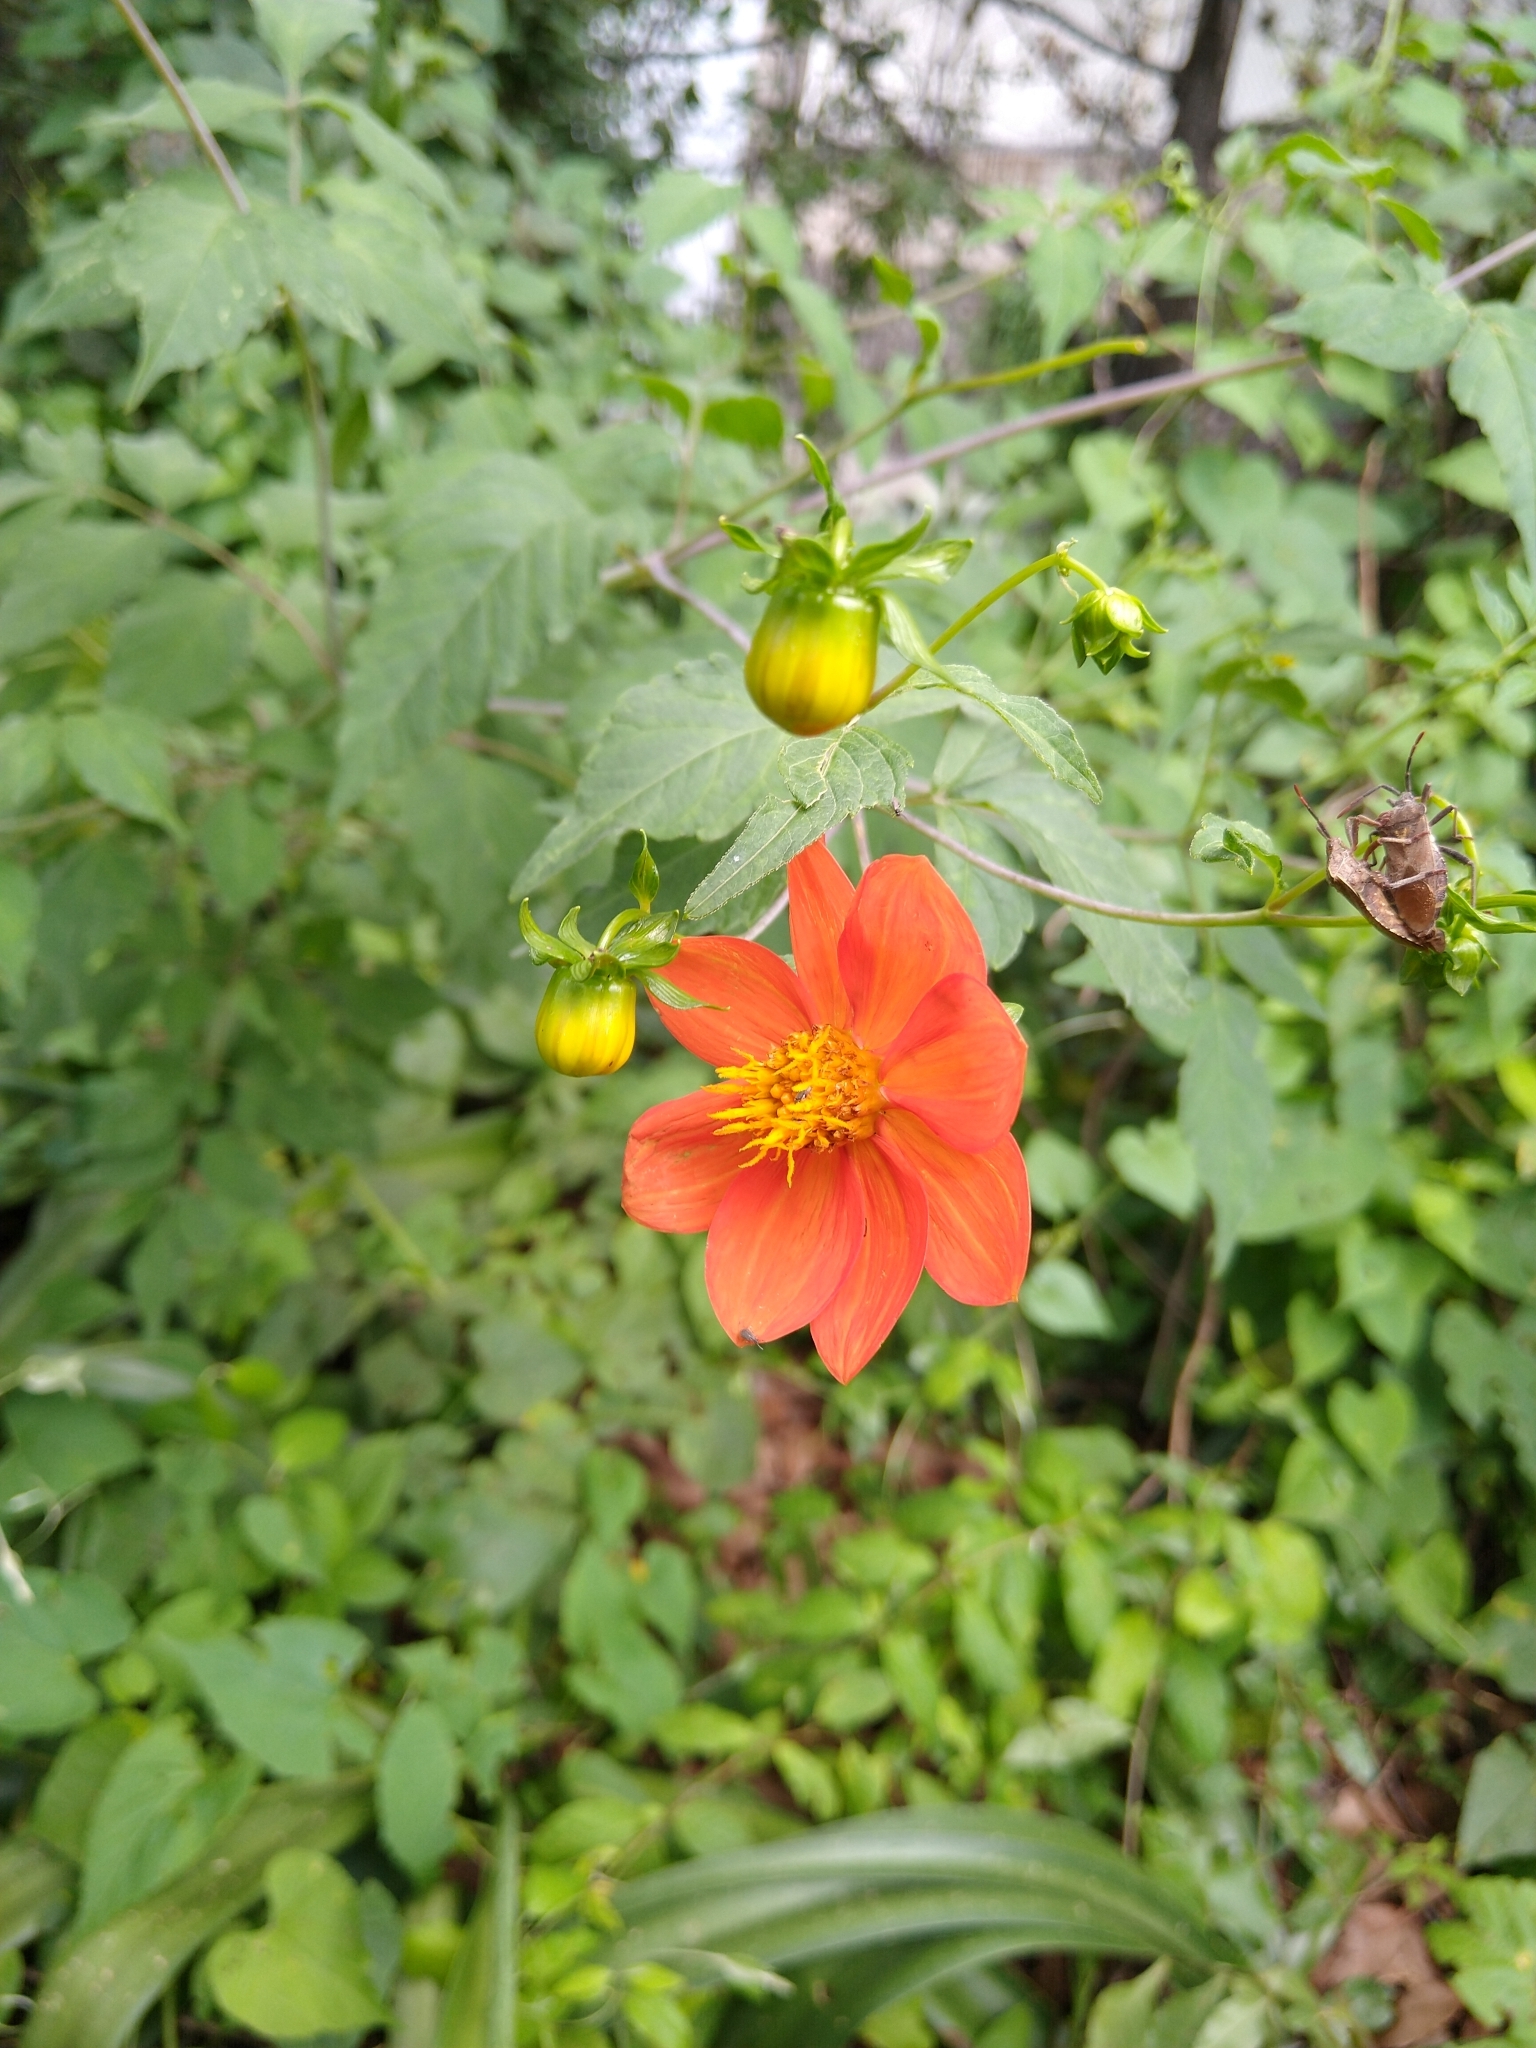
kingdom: Plantae
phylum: Tracheophyta
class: Magnoliopsida
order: Asterales
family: Asteraceae
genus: Dahlia
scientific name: Dahlia coccinea
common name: Red dahlia
